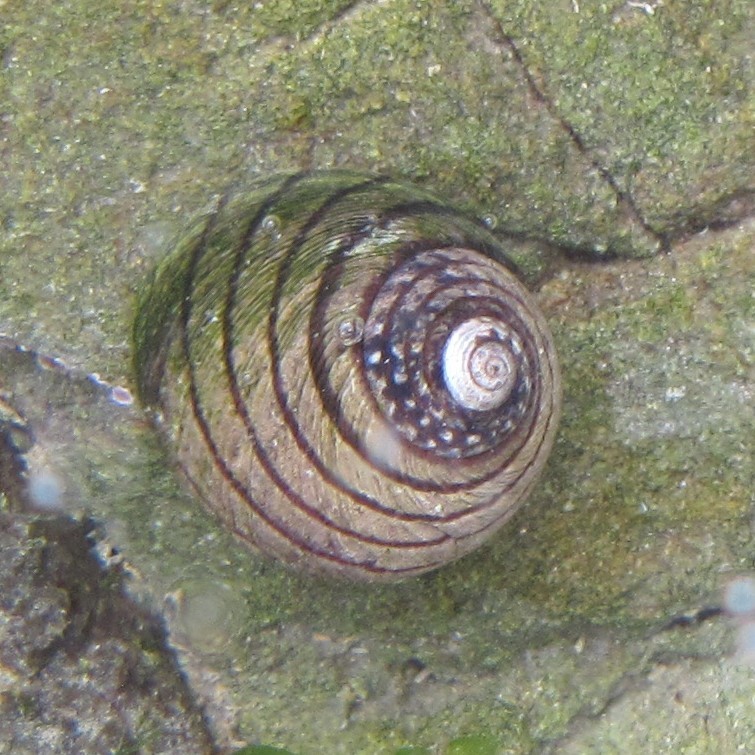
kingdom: Animalia
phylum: Mollusca
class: Gastropoda
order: Trochida
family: Trochidae
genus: Diloma
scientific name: Diloma aethiops
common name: Scorched monodont
